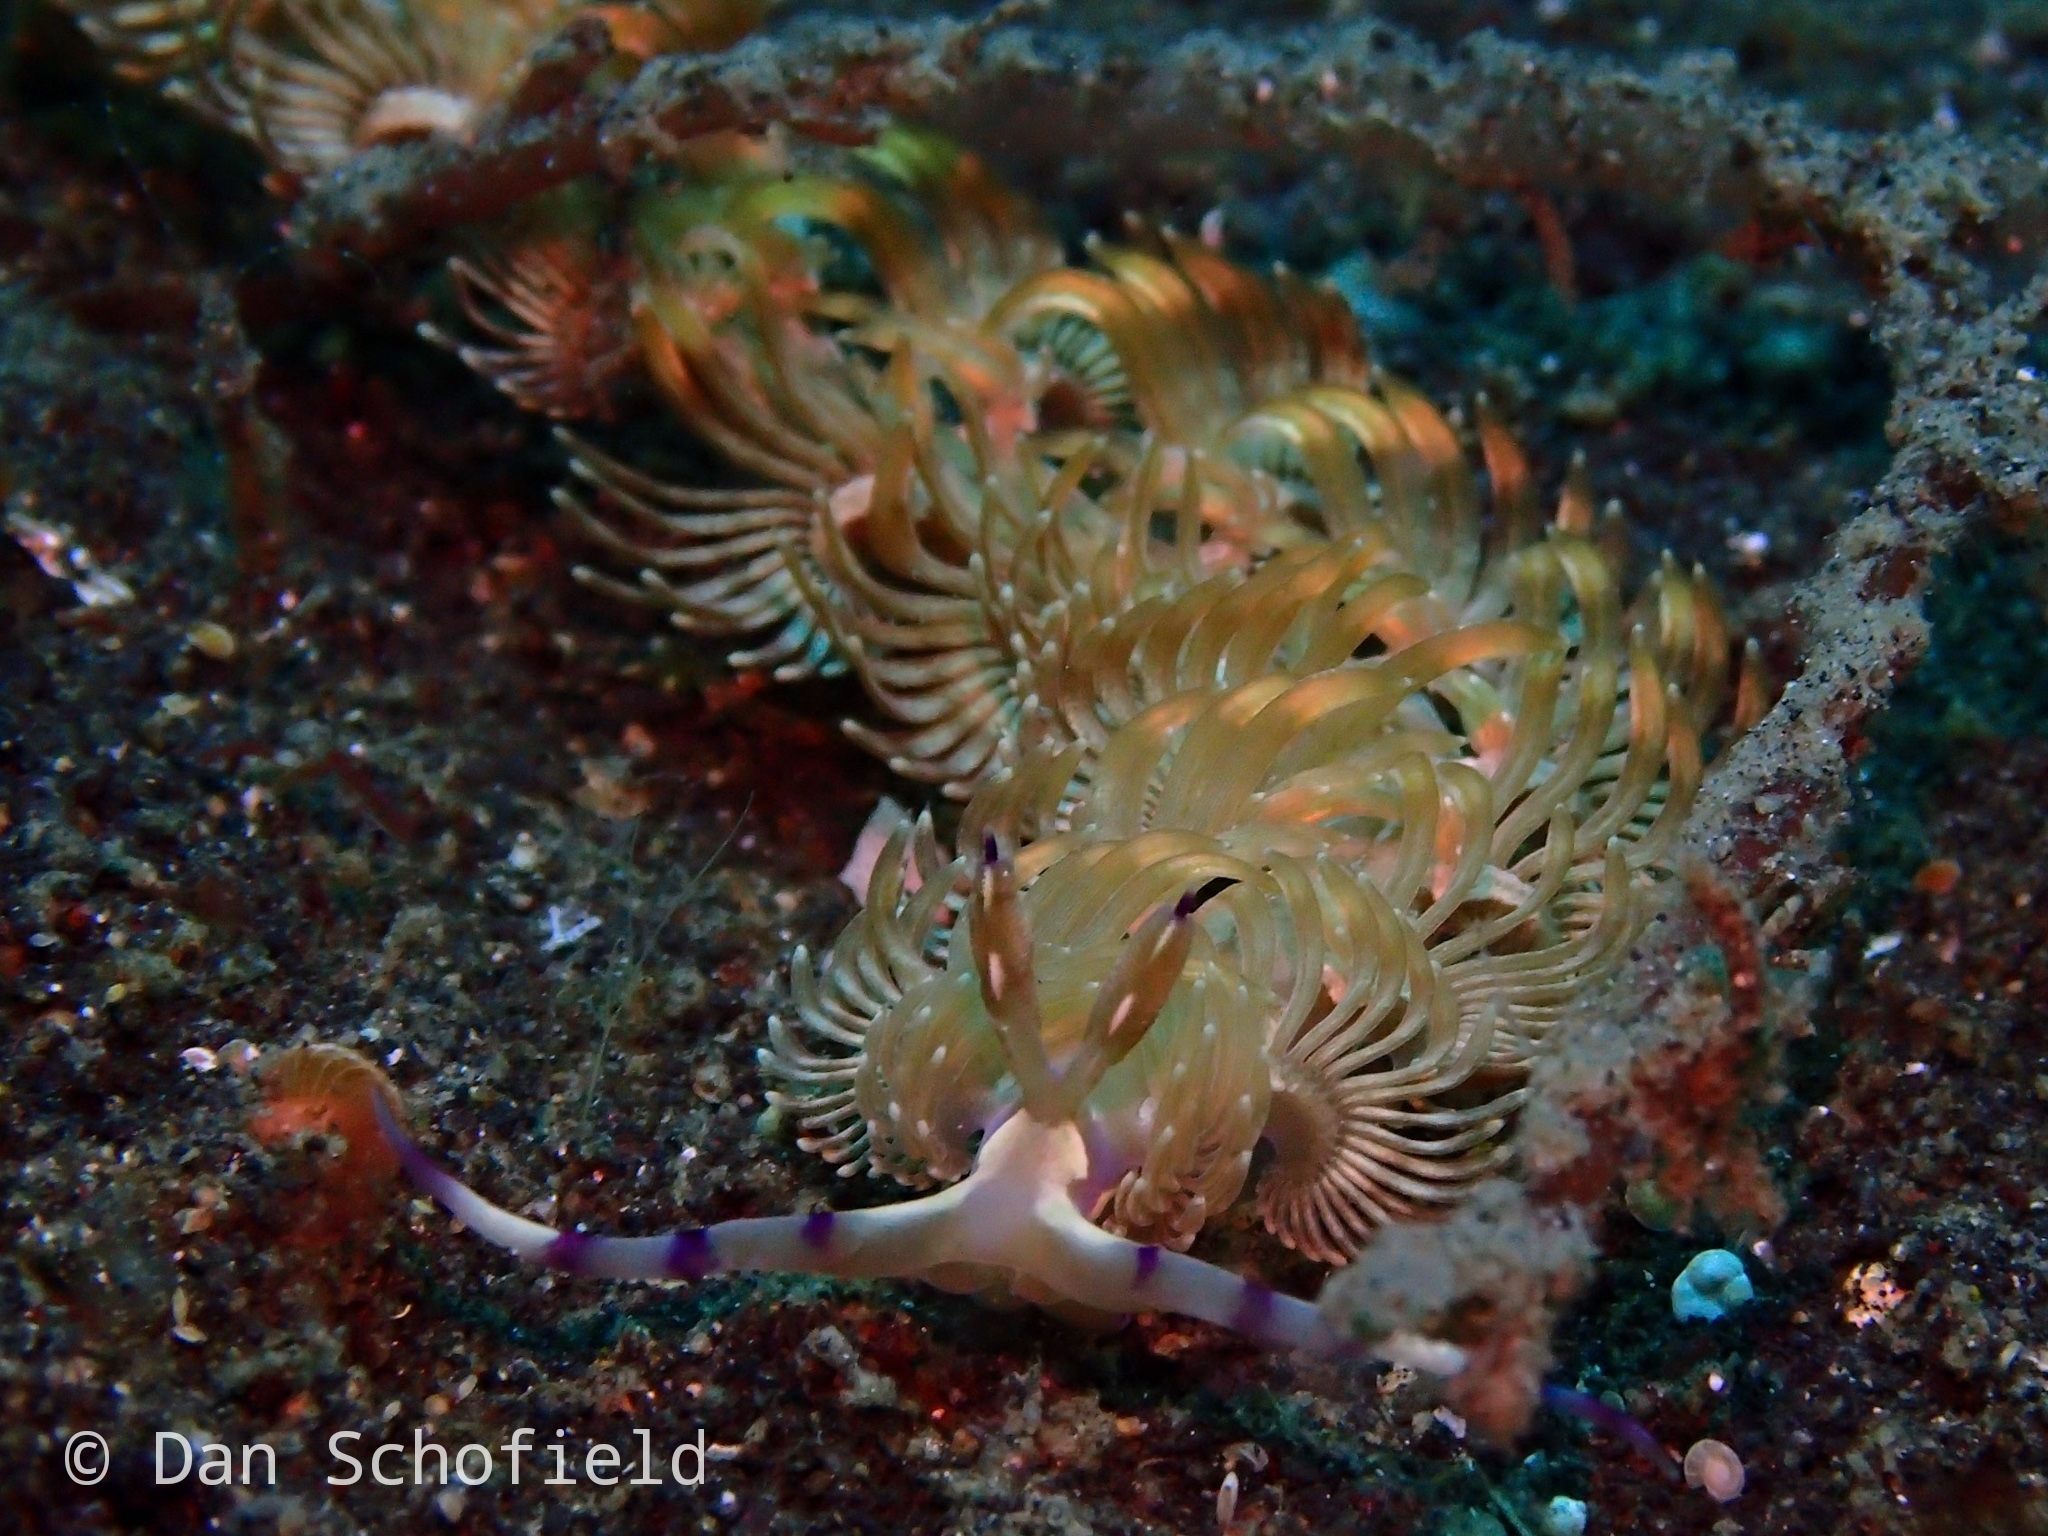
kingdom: Animalia
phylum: Mollusca
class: Gastropoda
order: Nudibranchia
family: Facelinidae
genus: Pteraeolidia
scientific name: Pteraeolidia semperi
